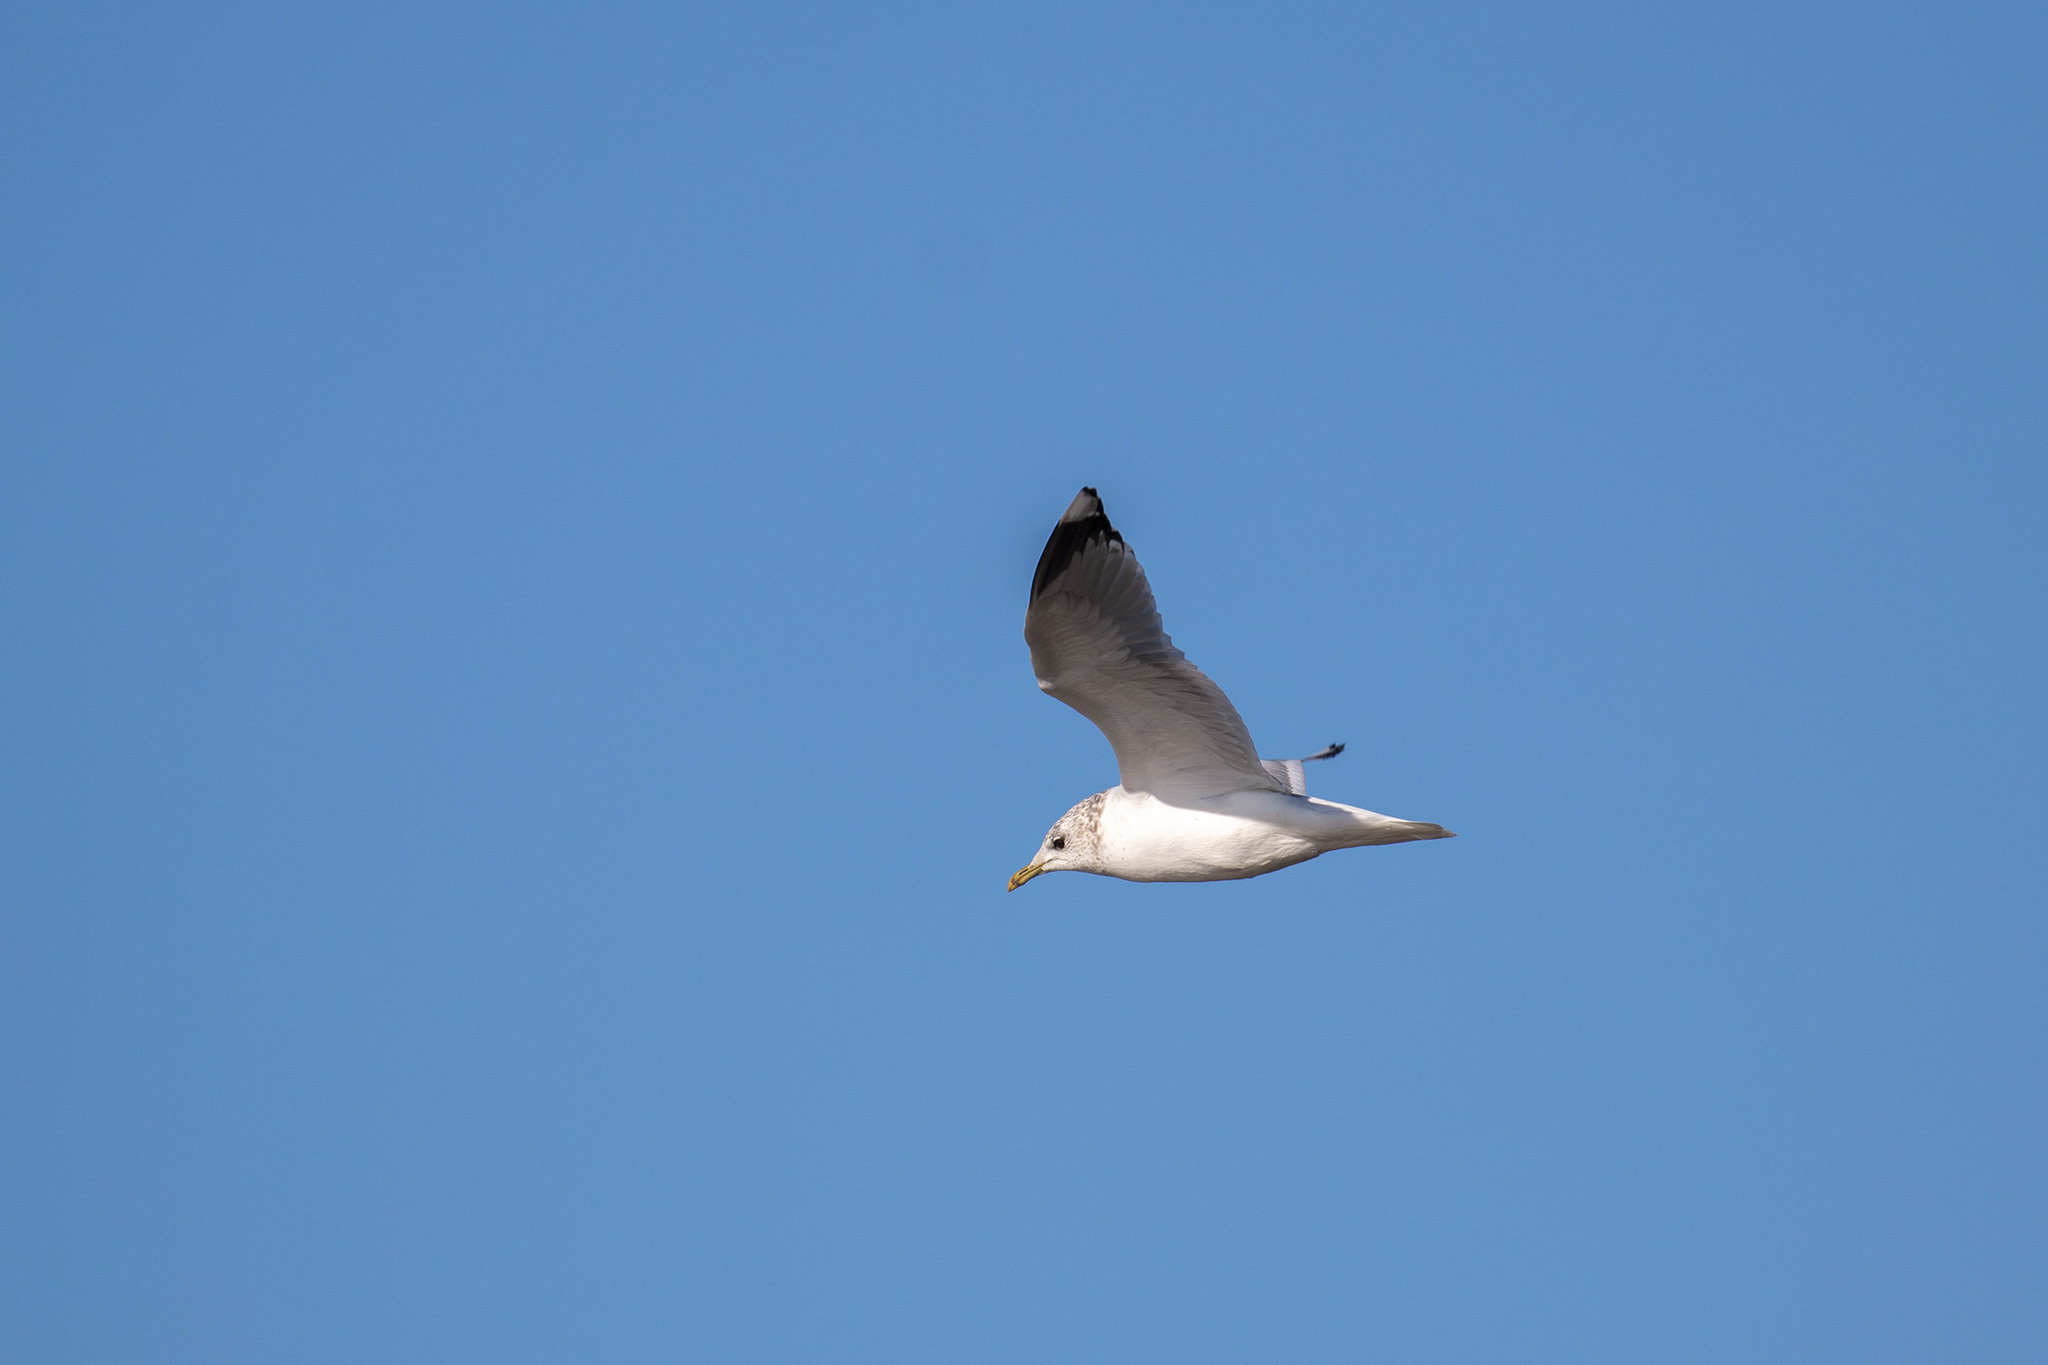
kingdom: Animalia
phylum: Chordata
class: Aves
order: Charadriiformes
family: Laridae
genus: Larus
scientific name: Larus canus
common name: Mew gull
